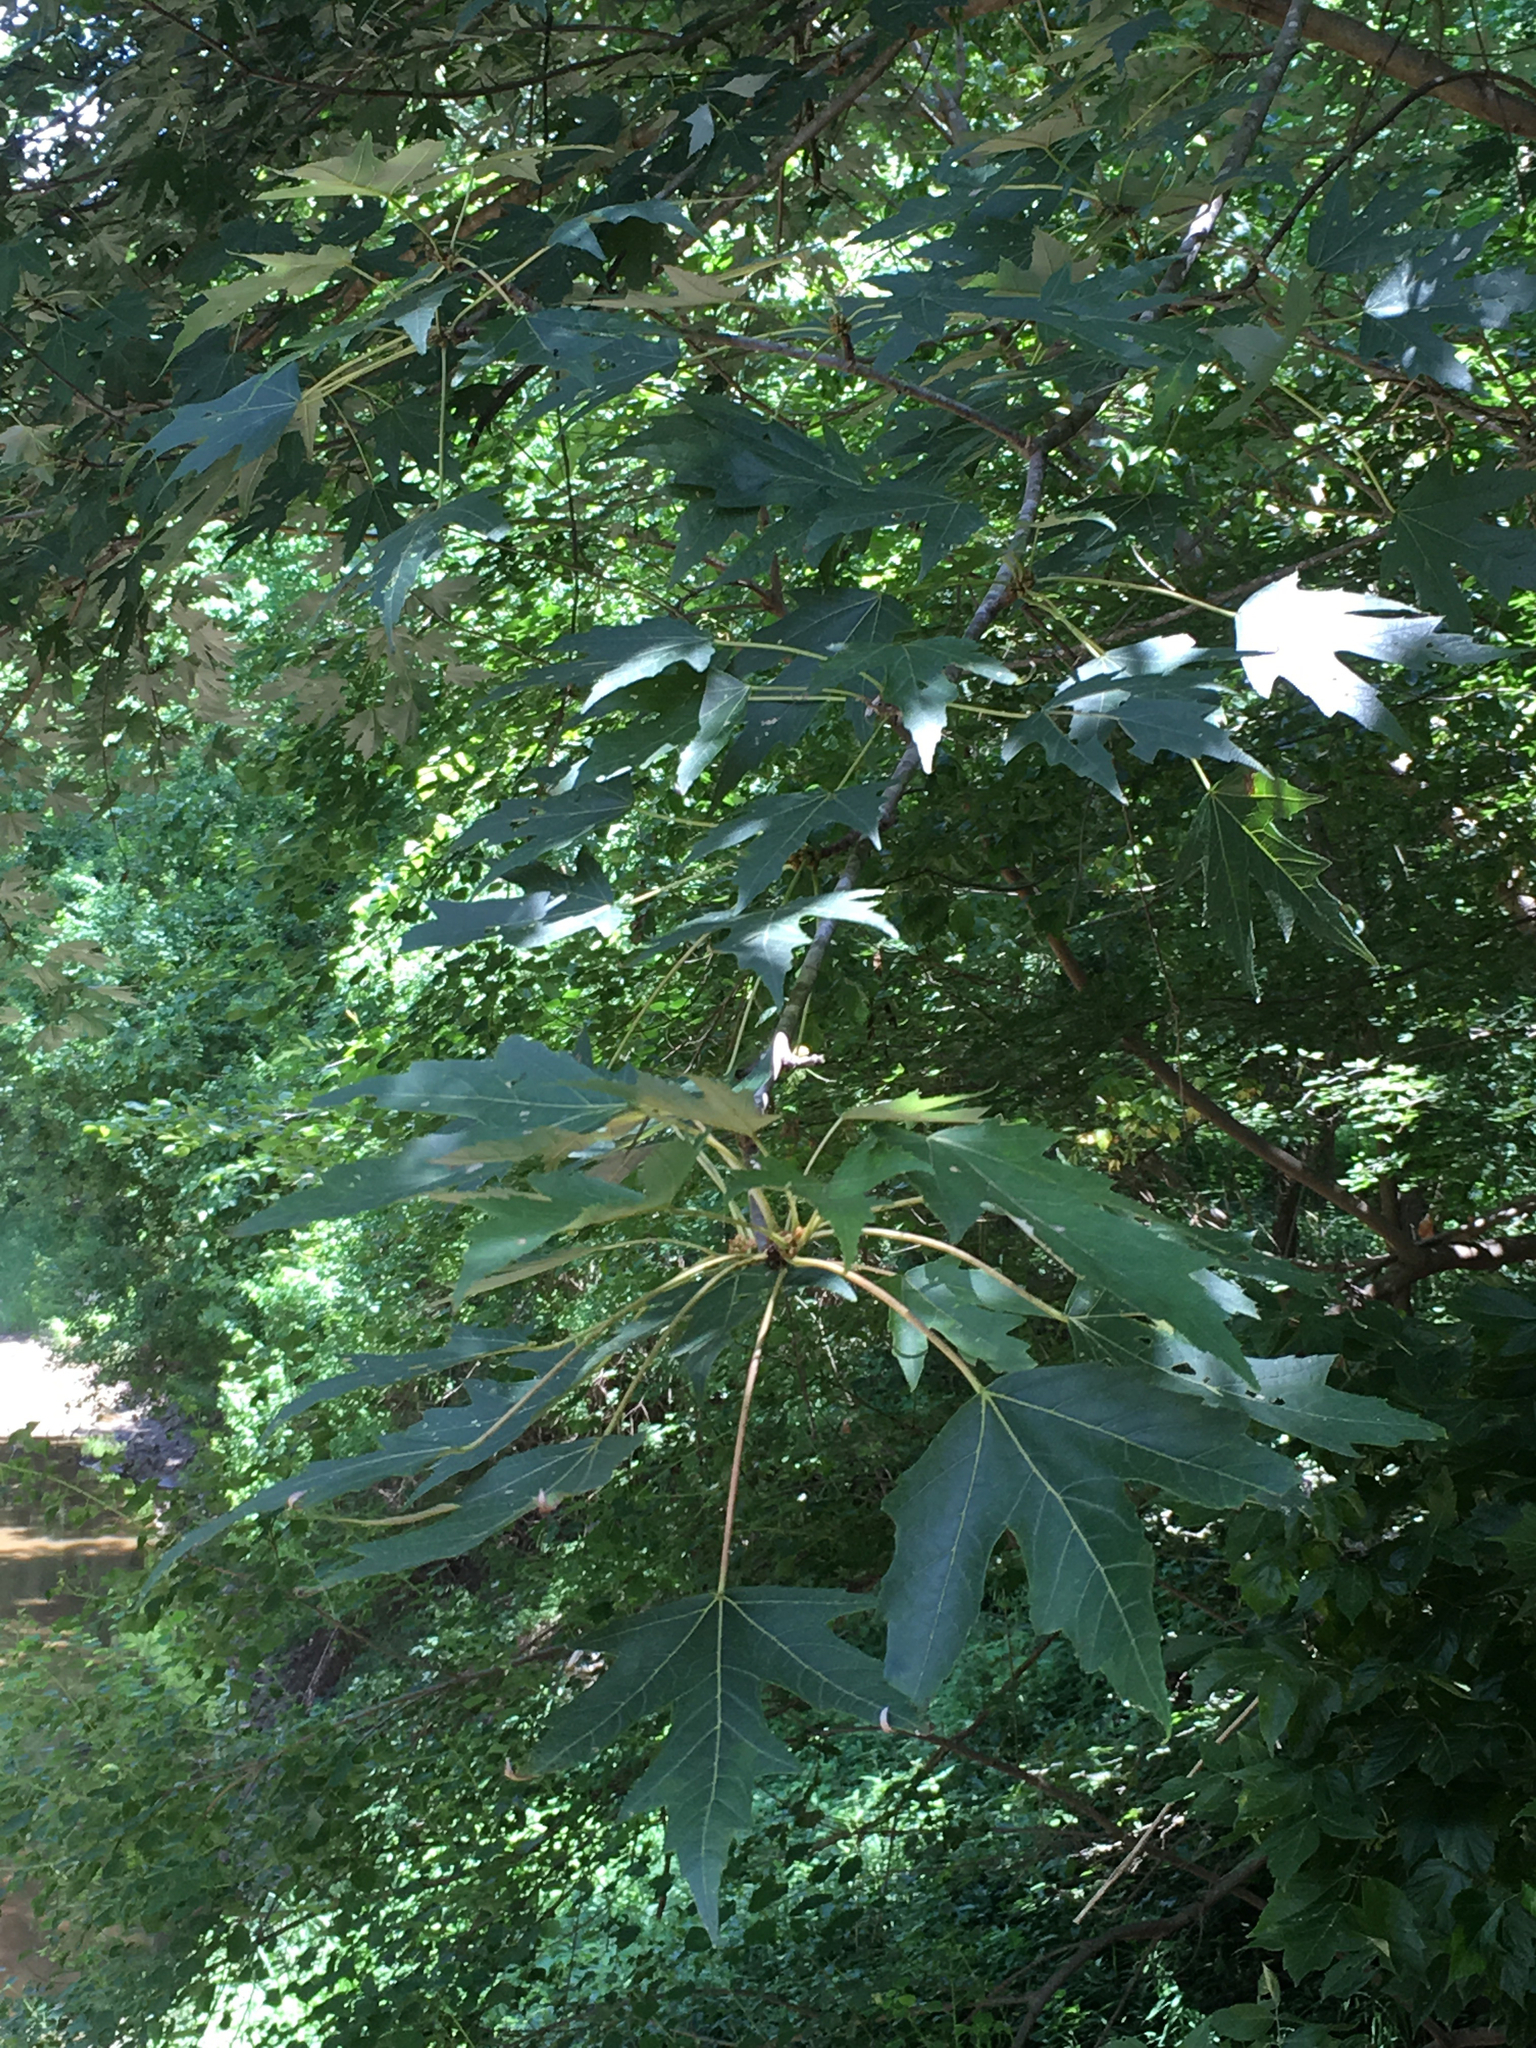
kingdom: Plantae
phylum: Tracheophyta
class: Magnoliopsida
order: Sapindales
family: Sapindaceae
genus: Acer
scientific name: Acer saccharinum
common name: Silver maple
